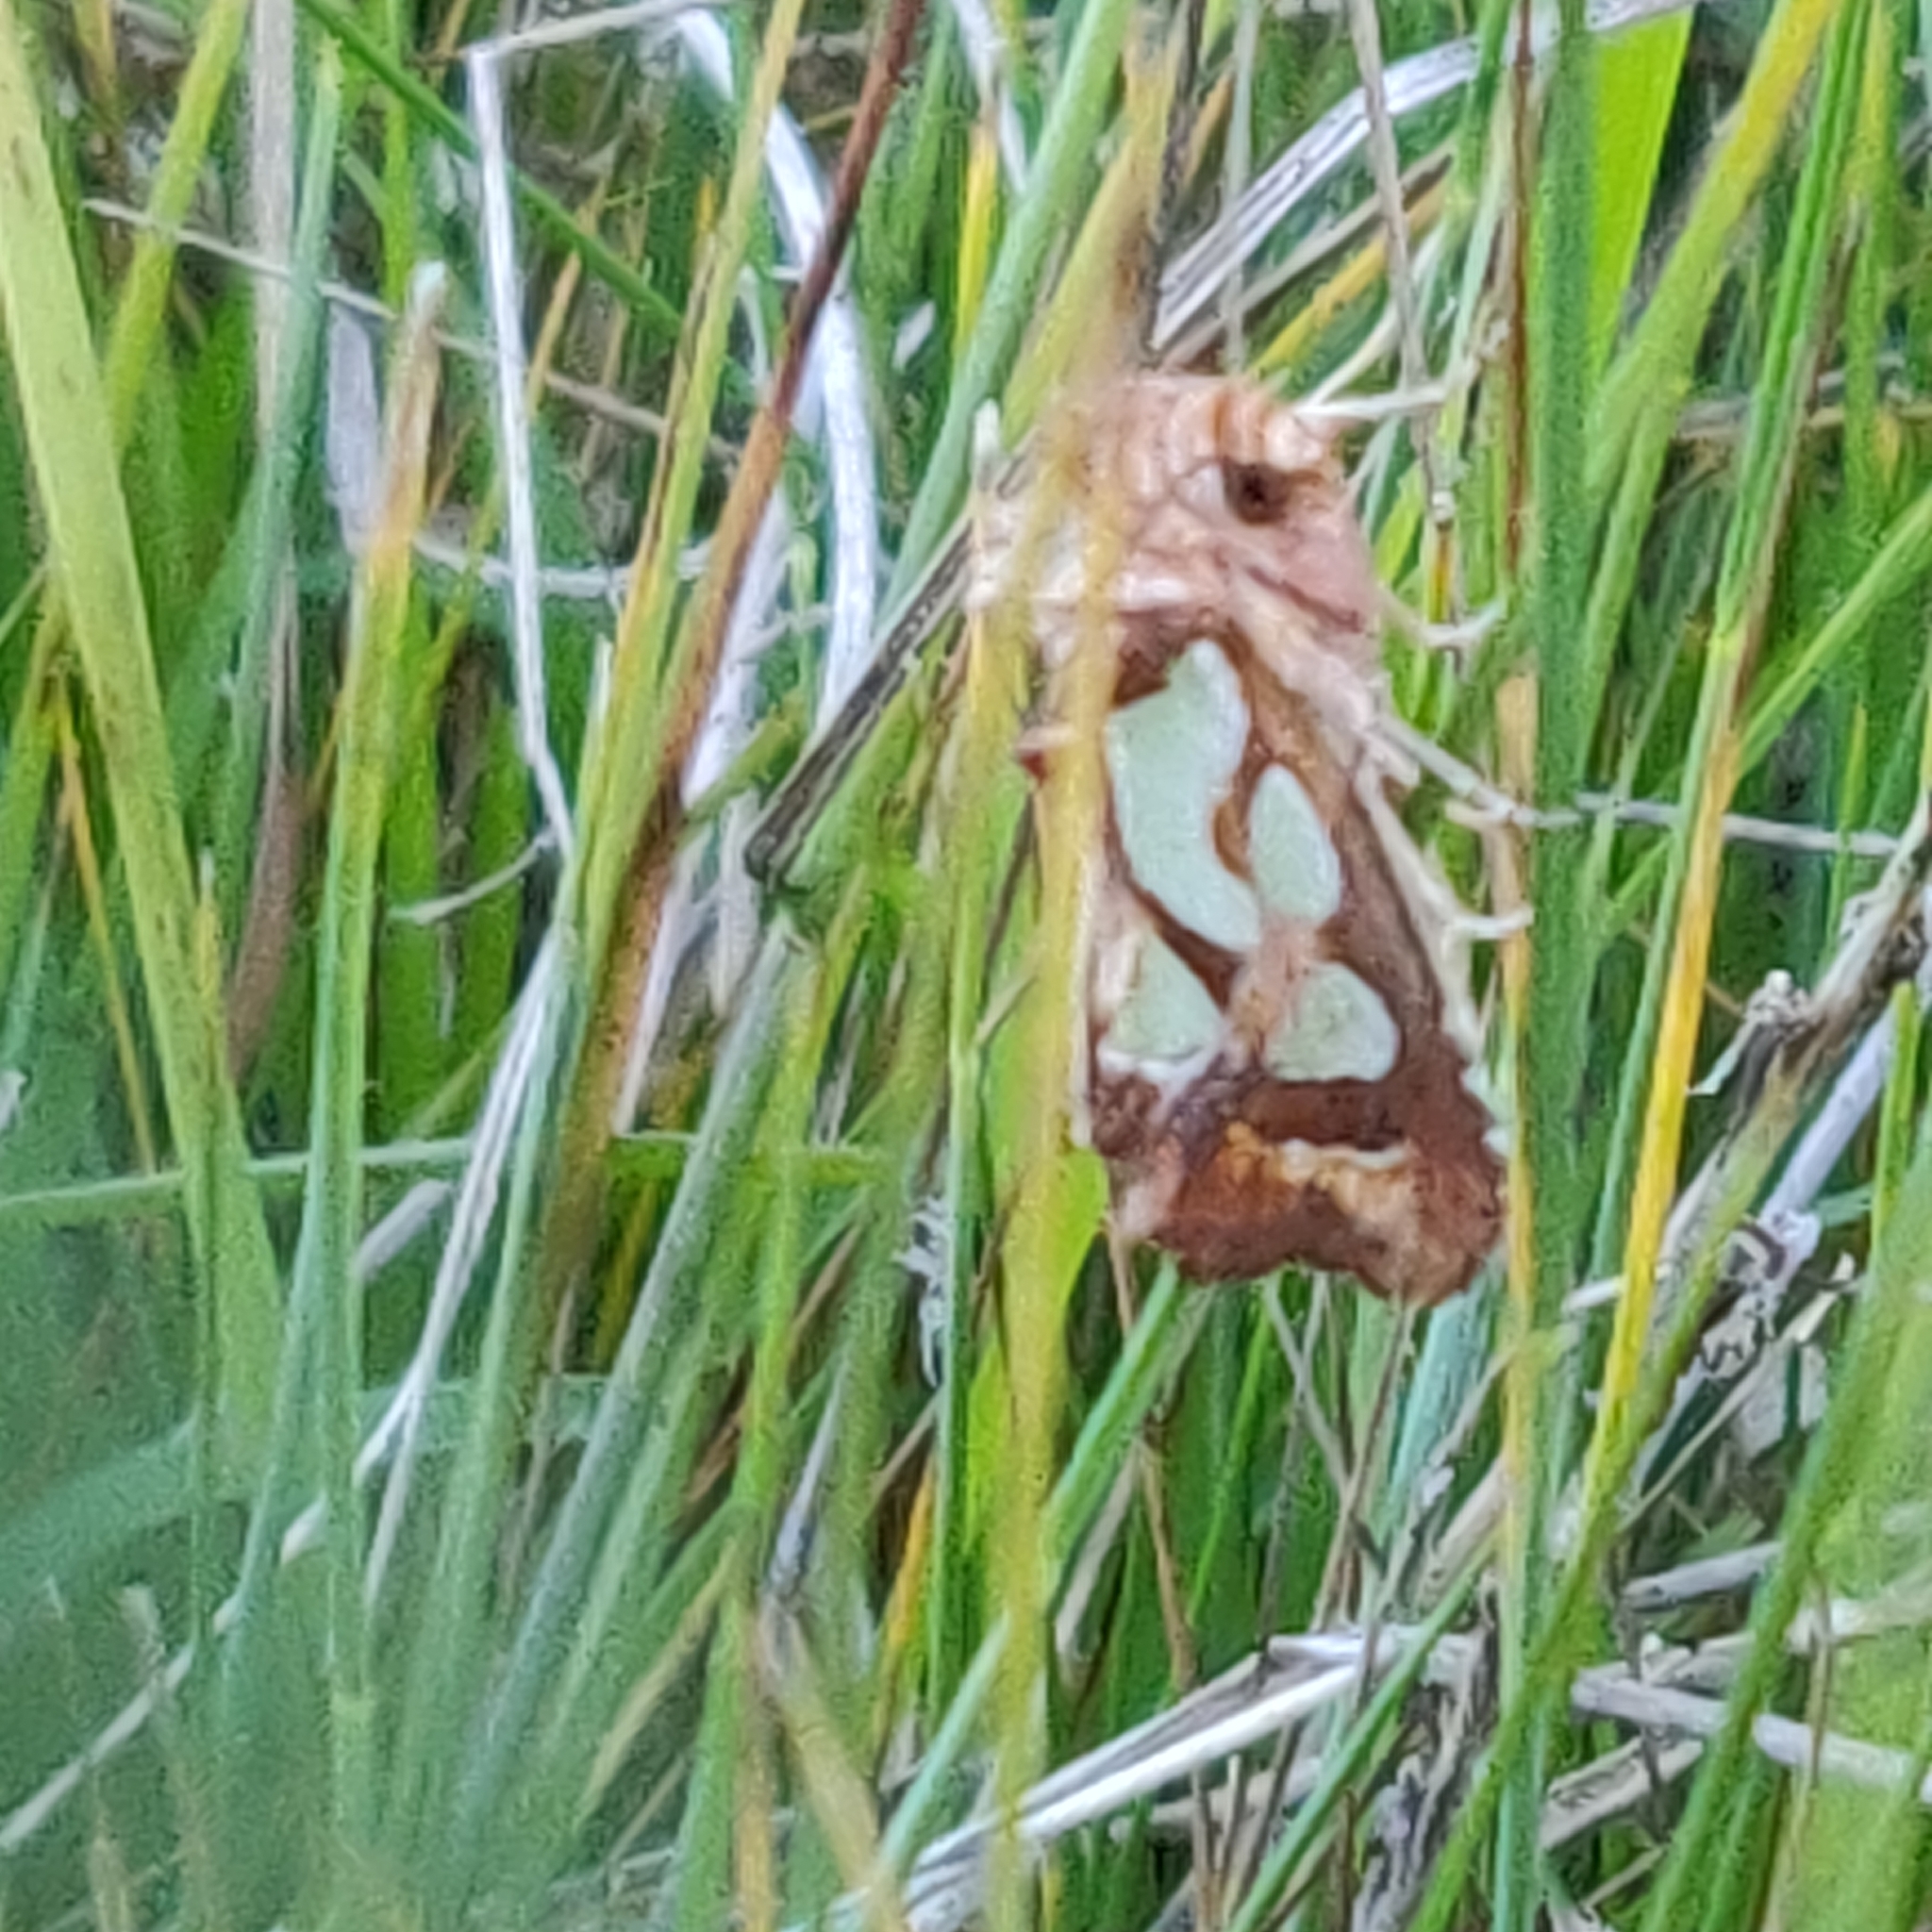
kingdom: Animalia
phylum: Arthropoda
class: Insecta
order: Lepidoptera
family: Noctuidae
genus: Cosmodes
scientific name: Cosmodes elegans
